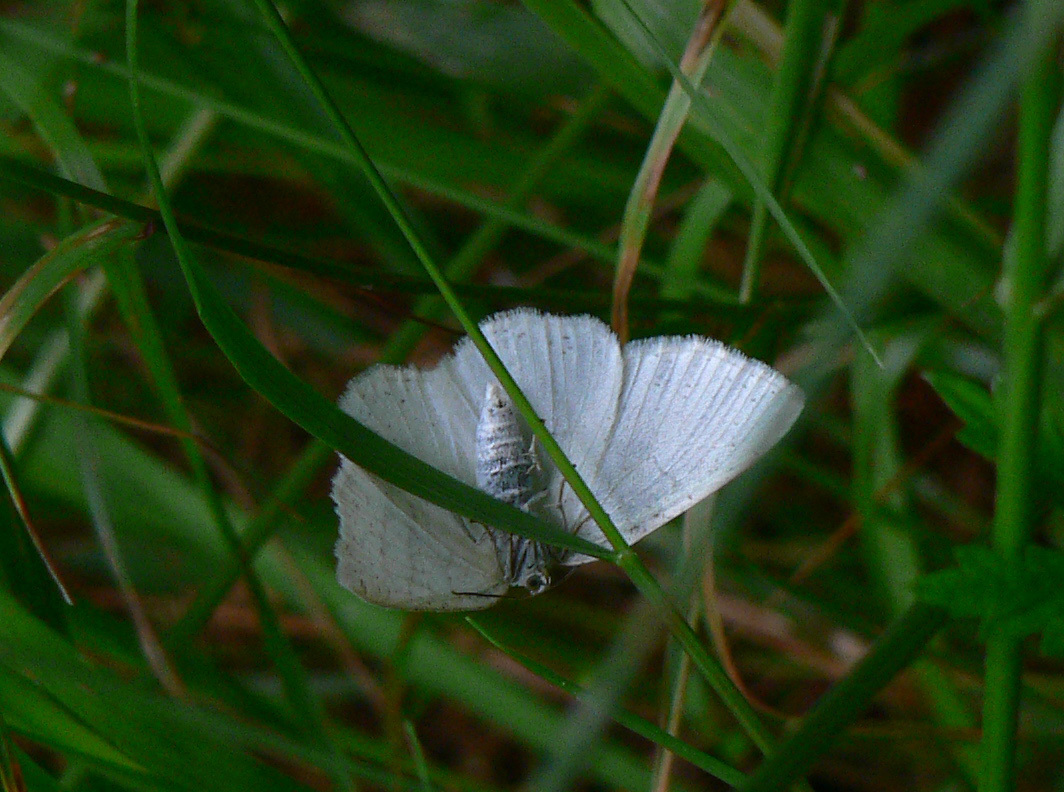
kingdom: Animalia
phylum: Arthropoda
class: Insecta
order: Lepidoptera
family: Geometridae
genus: Cabera
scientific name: Cabera pusaria
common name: Common white wave
